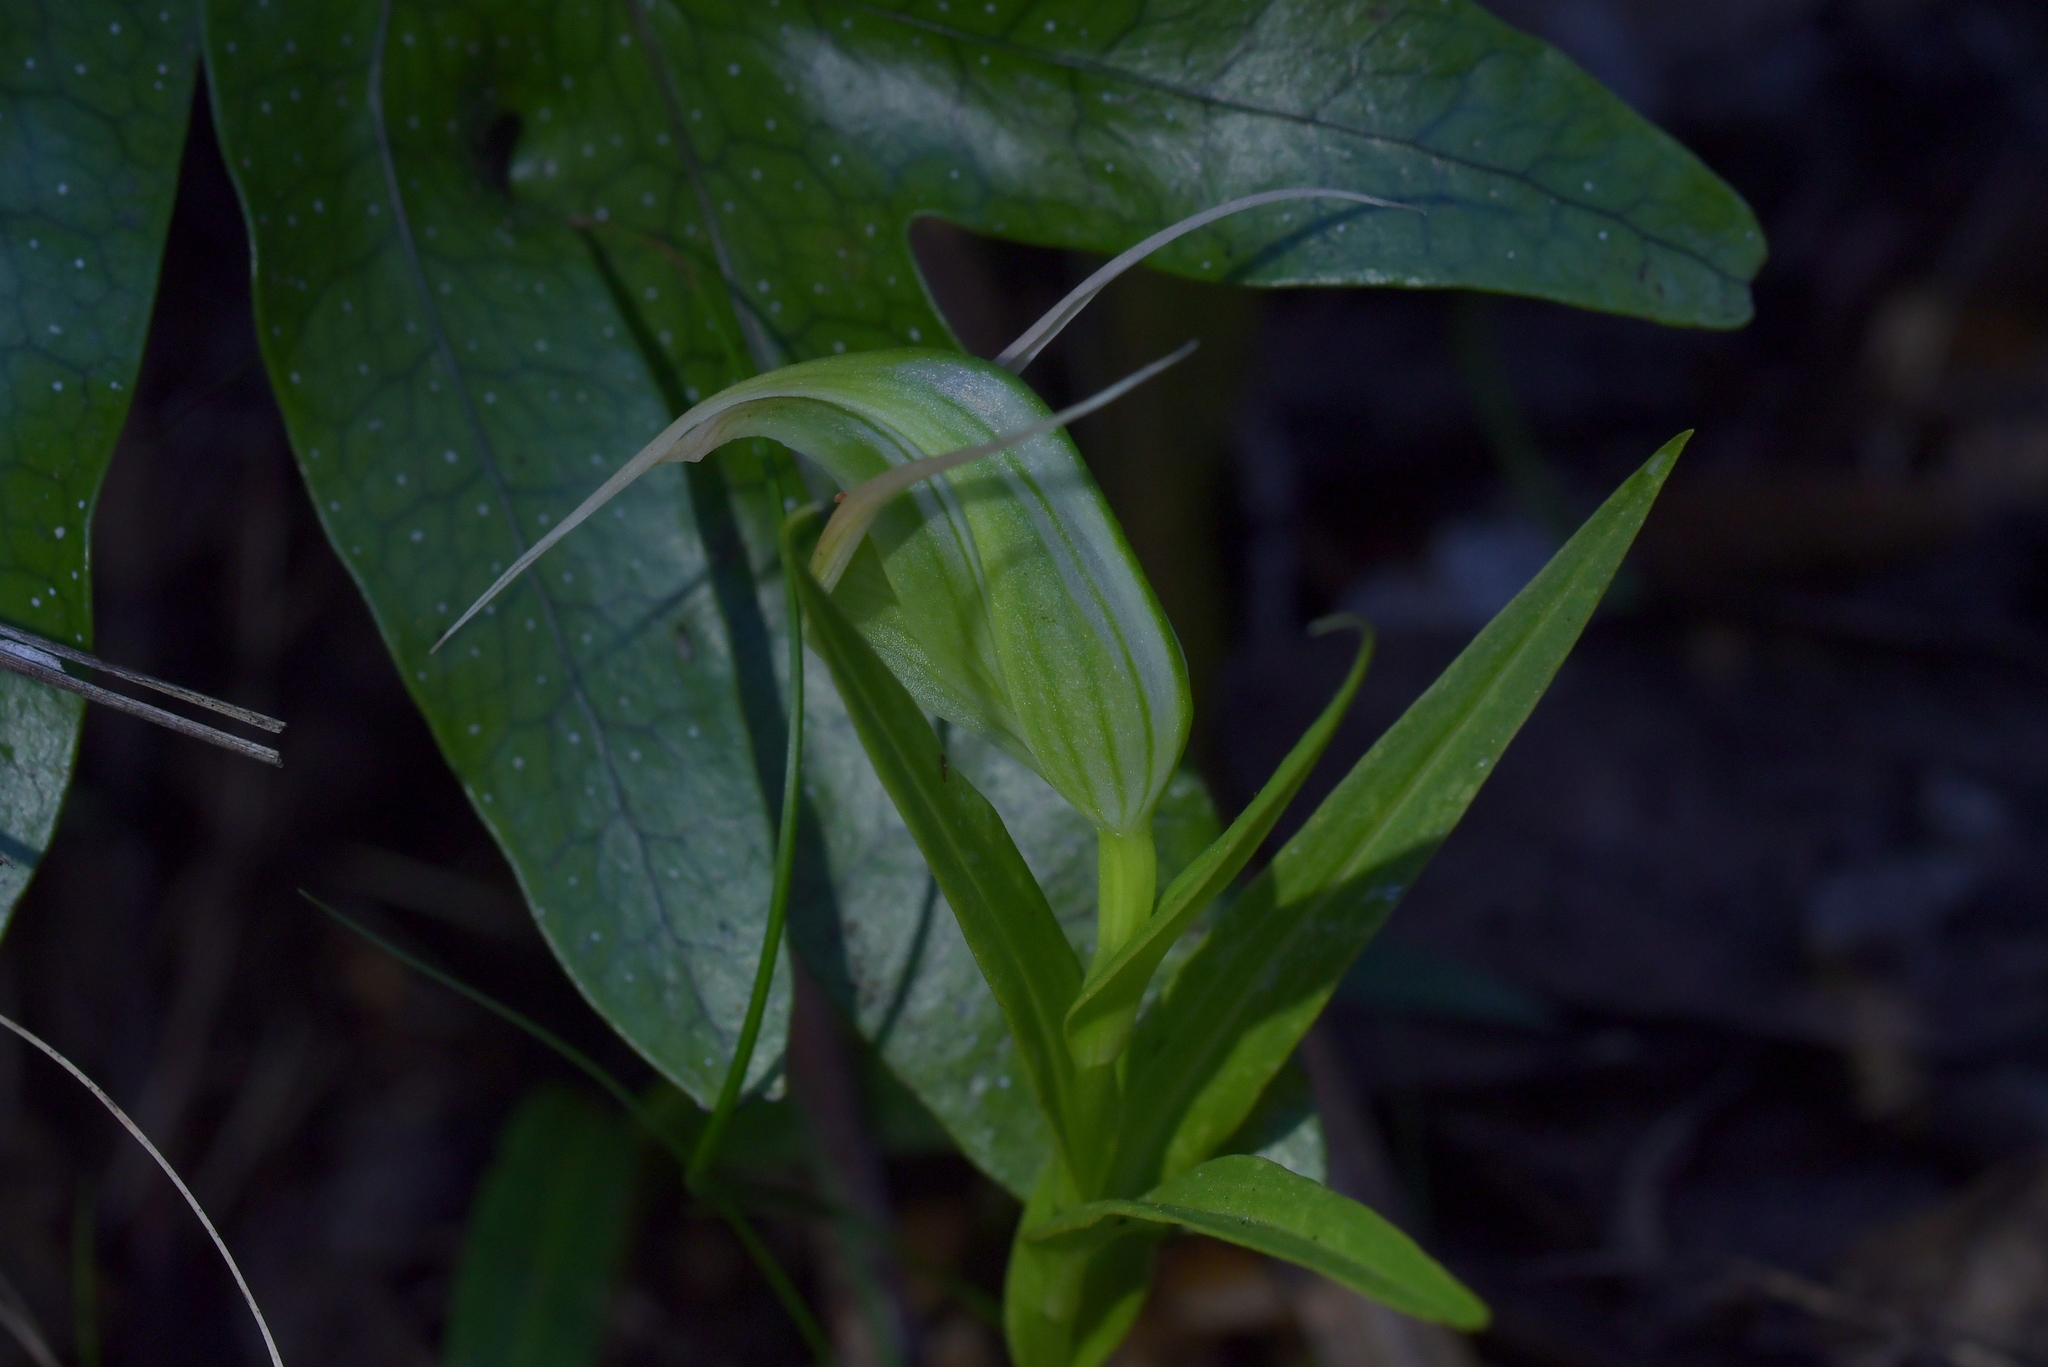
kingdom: Plantae
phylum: Tracheophyta
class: Liliopsida
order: Asparagales
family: Orchidaceae
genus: Pterostylis
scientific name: Pterostylis banksii
